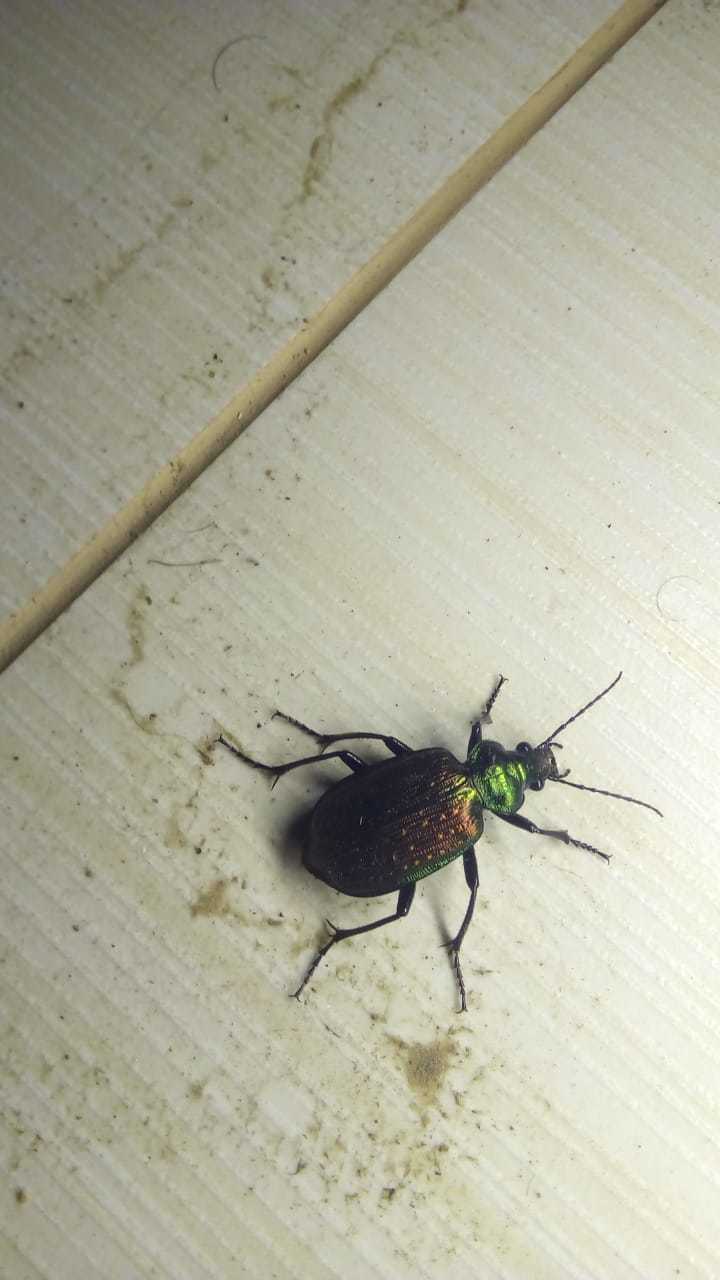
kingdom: Animalia
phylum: Arthropoda
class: Insecta
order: Coleoptera
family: Carabidae
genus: Calosoma
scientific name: Calosoma alternans
